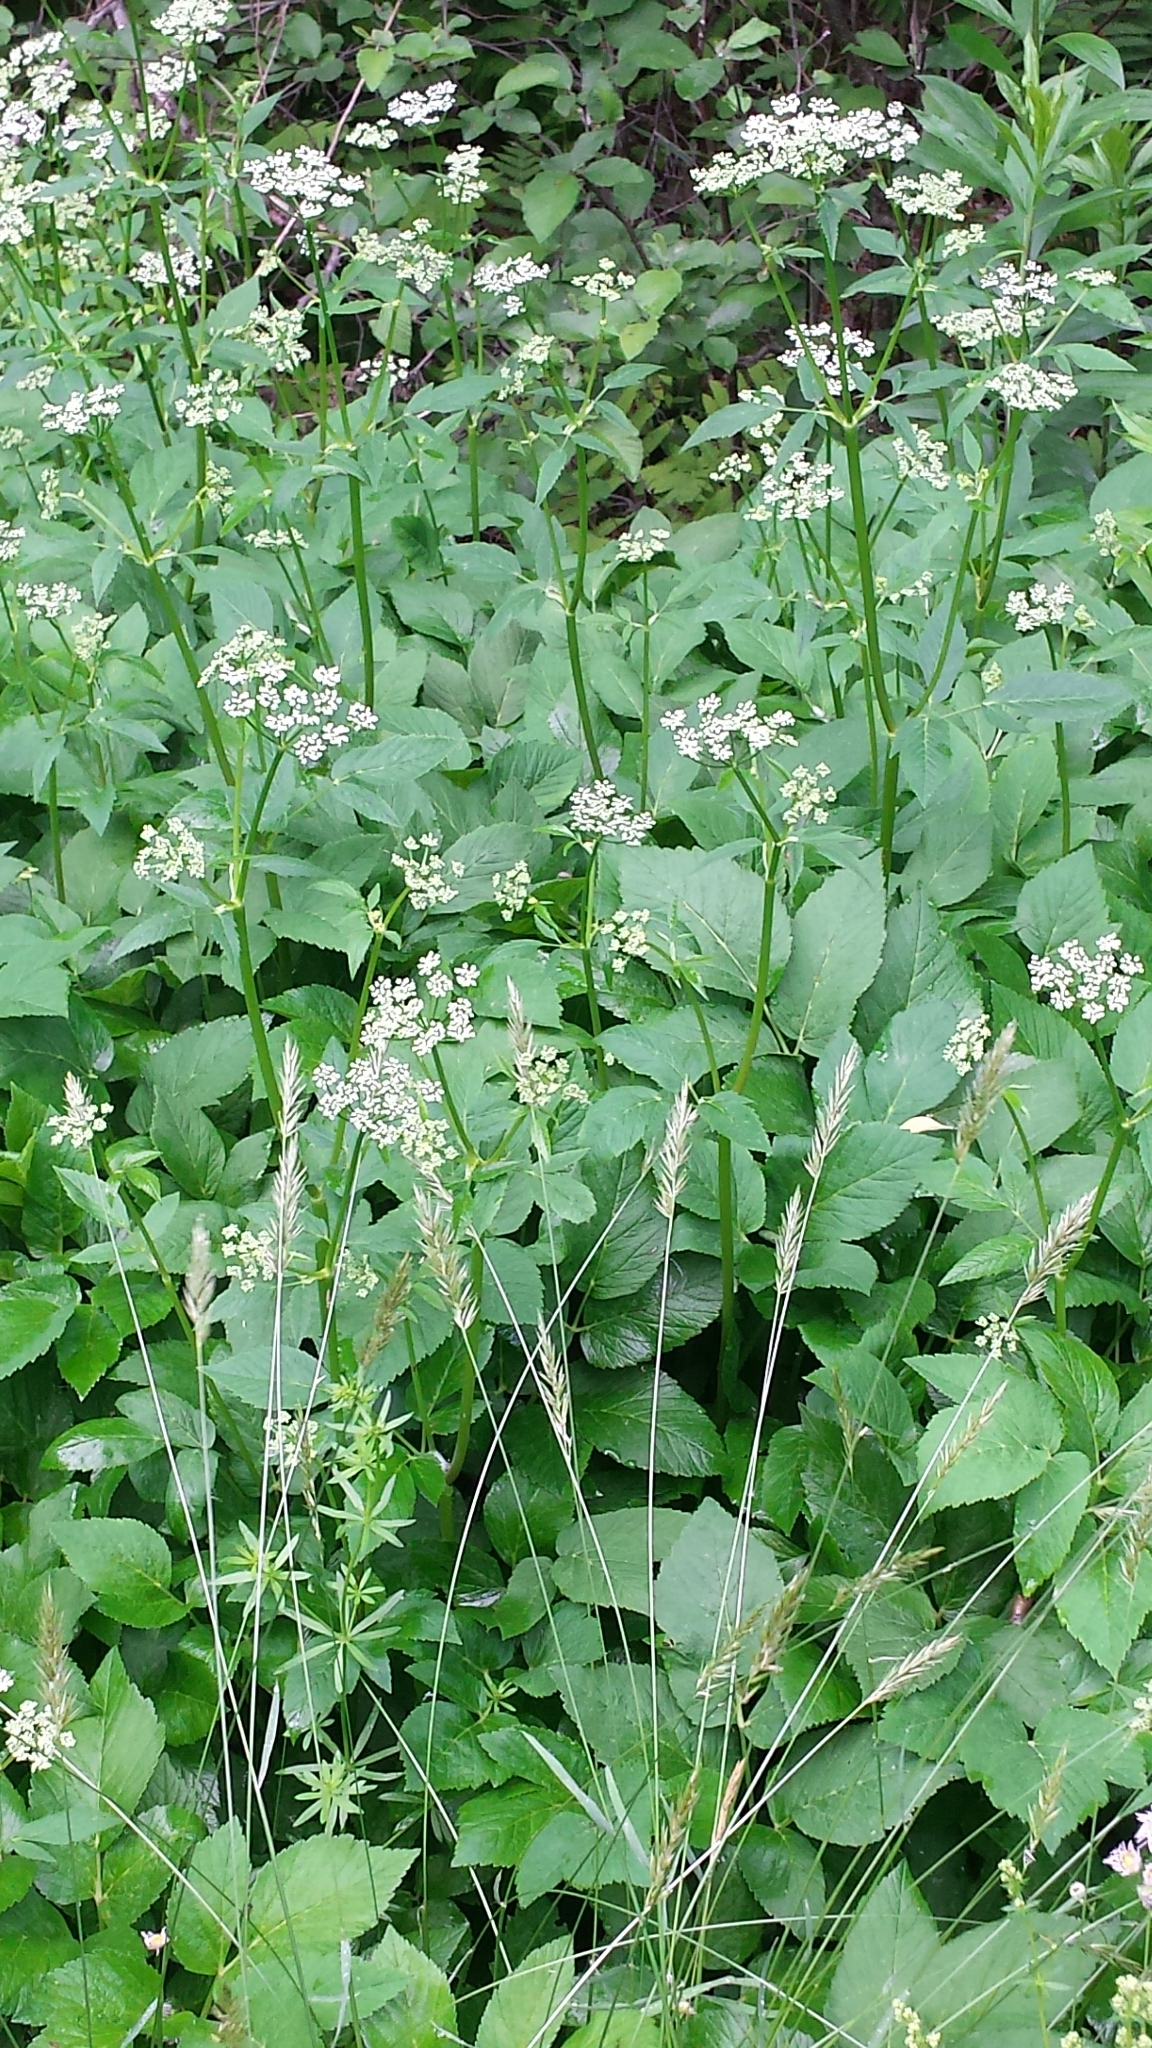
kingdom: Plantae
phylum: Tracheophyta
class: Magnoliopsida
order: Apiales
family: Apiaceae
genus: Aegopodium
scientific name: Aegopodium podagraria
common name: Ground-elder
